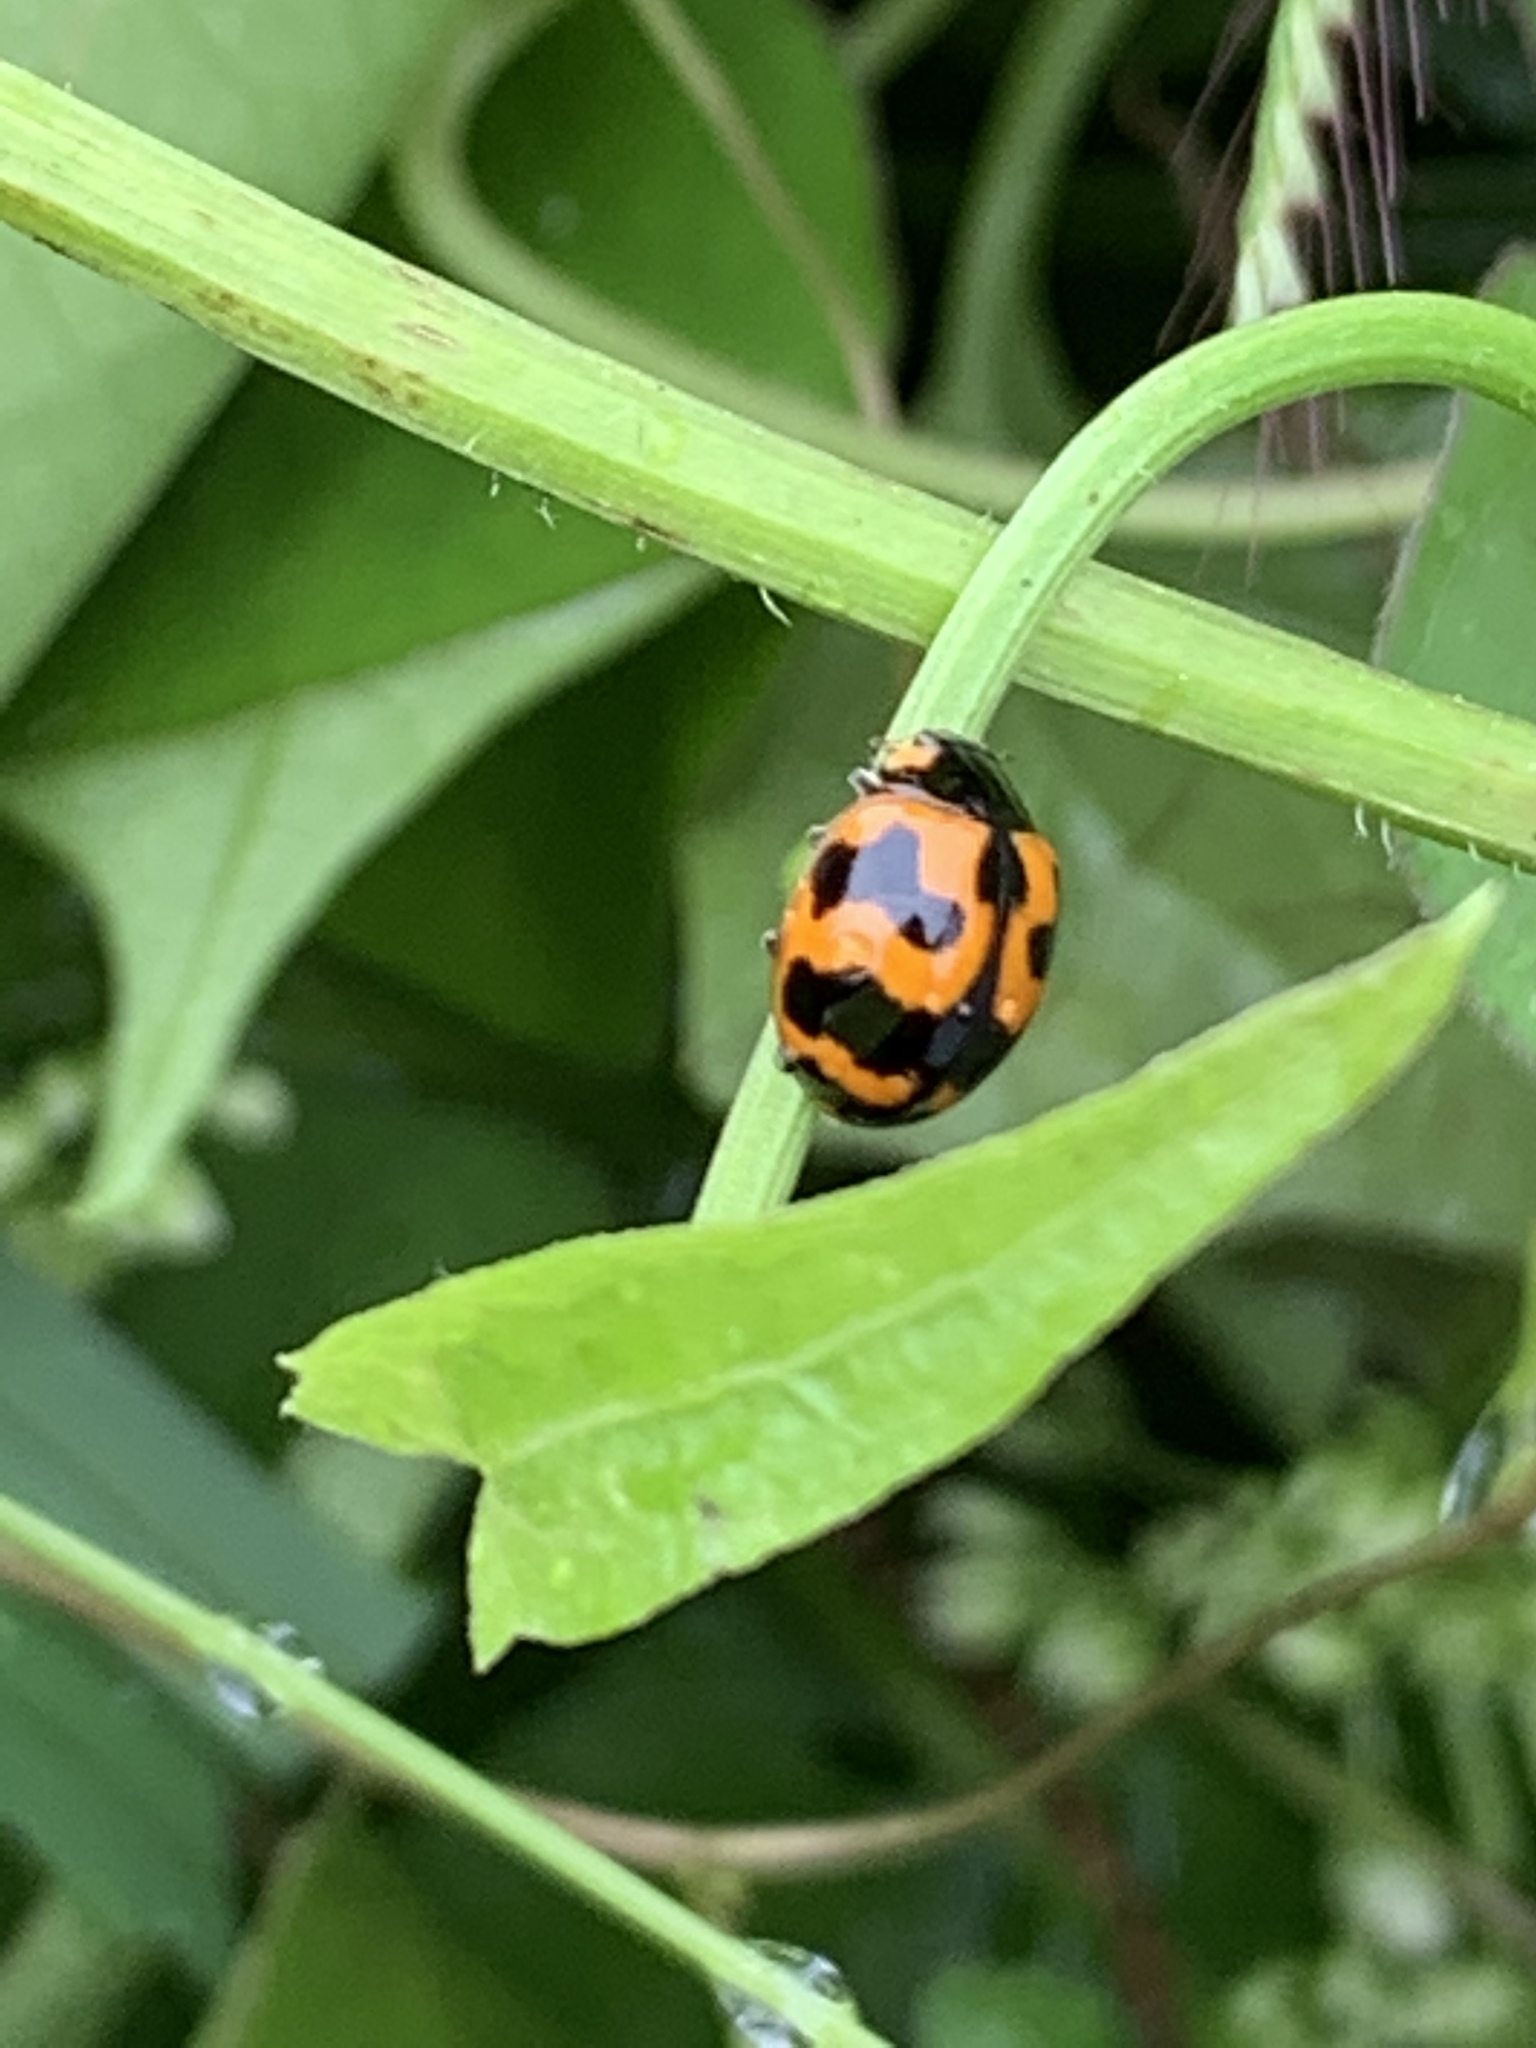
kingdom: Animalia
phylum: Arthropoda
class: Insecta
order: Coleoptera
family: Coccinellidae
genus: Coccinella
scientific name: Coccinella transversalis
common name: Transverse lady beetle
